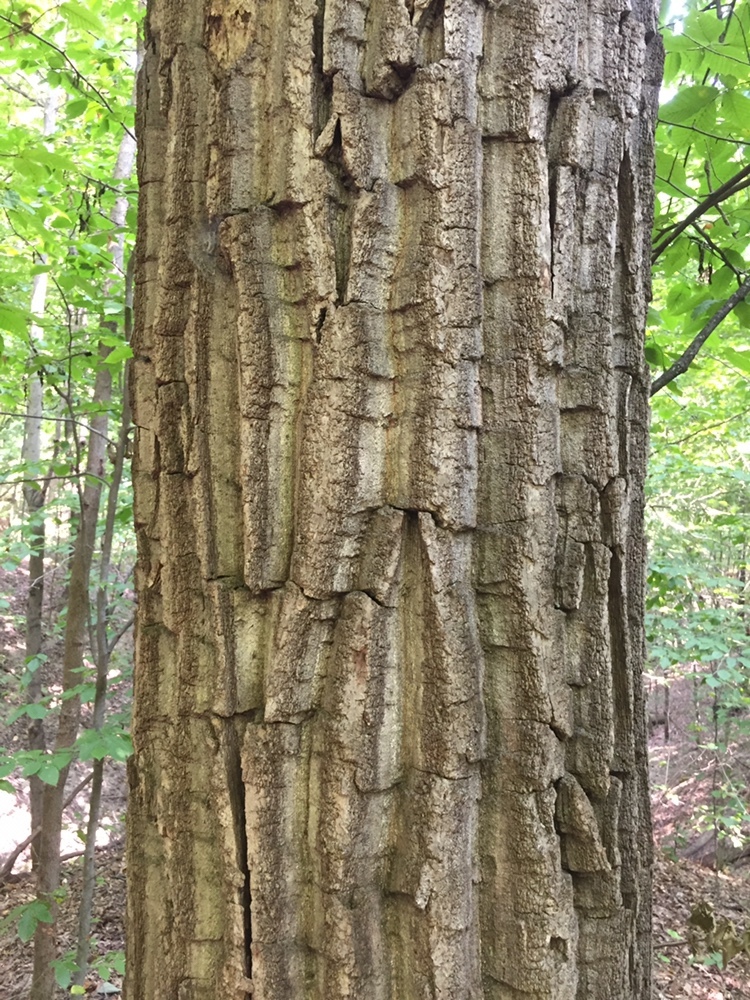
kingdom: Plantae
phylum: Tracheophyta
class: Magnoliopsida
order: Fagales
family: Fagaceae
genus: Quercus
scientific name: Quercus montana
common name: Chestnut oak
